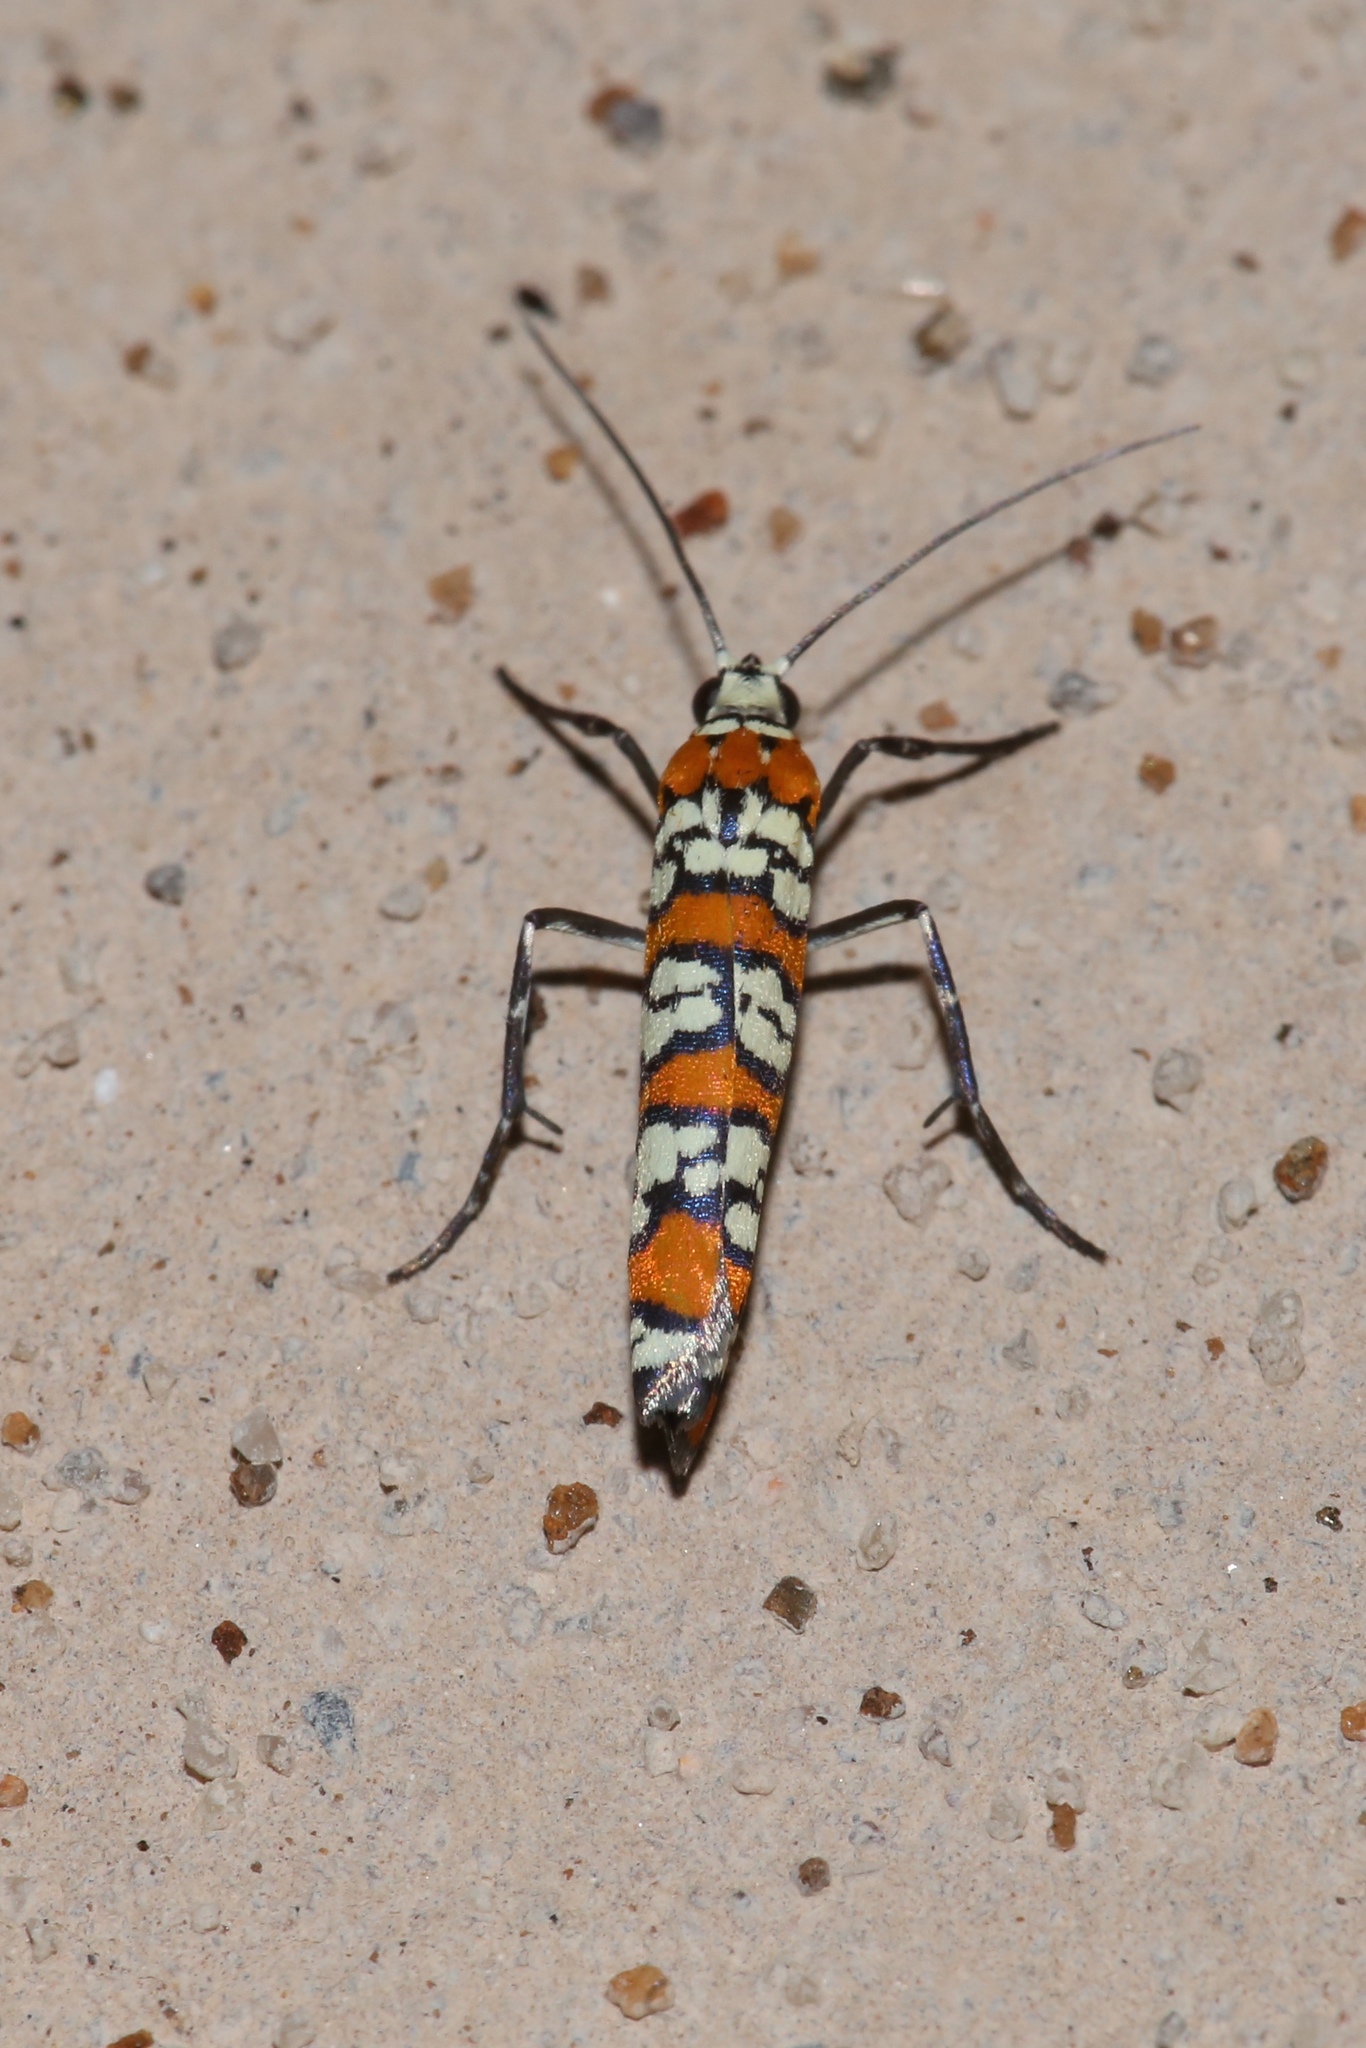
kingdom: Animalia
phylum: Arthropoda
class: Insecta
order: Lepidoptera
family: Attevidae
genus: Atteva
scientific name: Atteva punctella
